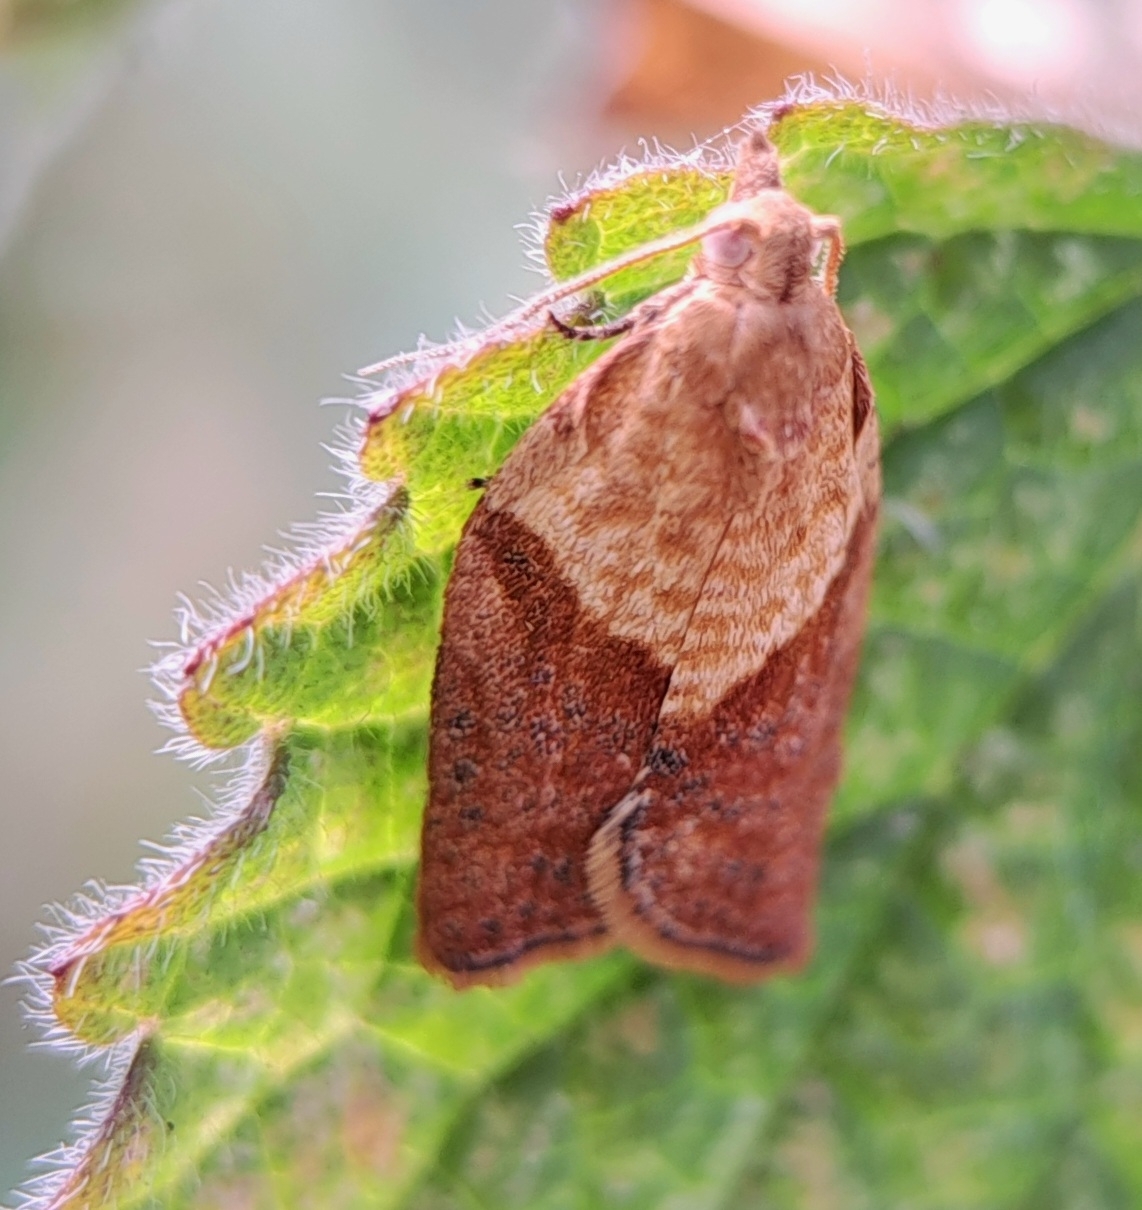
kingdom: Animalia
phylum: Arthropoda
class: Insecta
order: Lepidoptera
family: Tortricidae
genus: Epiphyas
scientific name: Epiphyas postvittana
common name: Light brown apple moth
